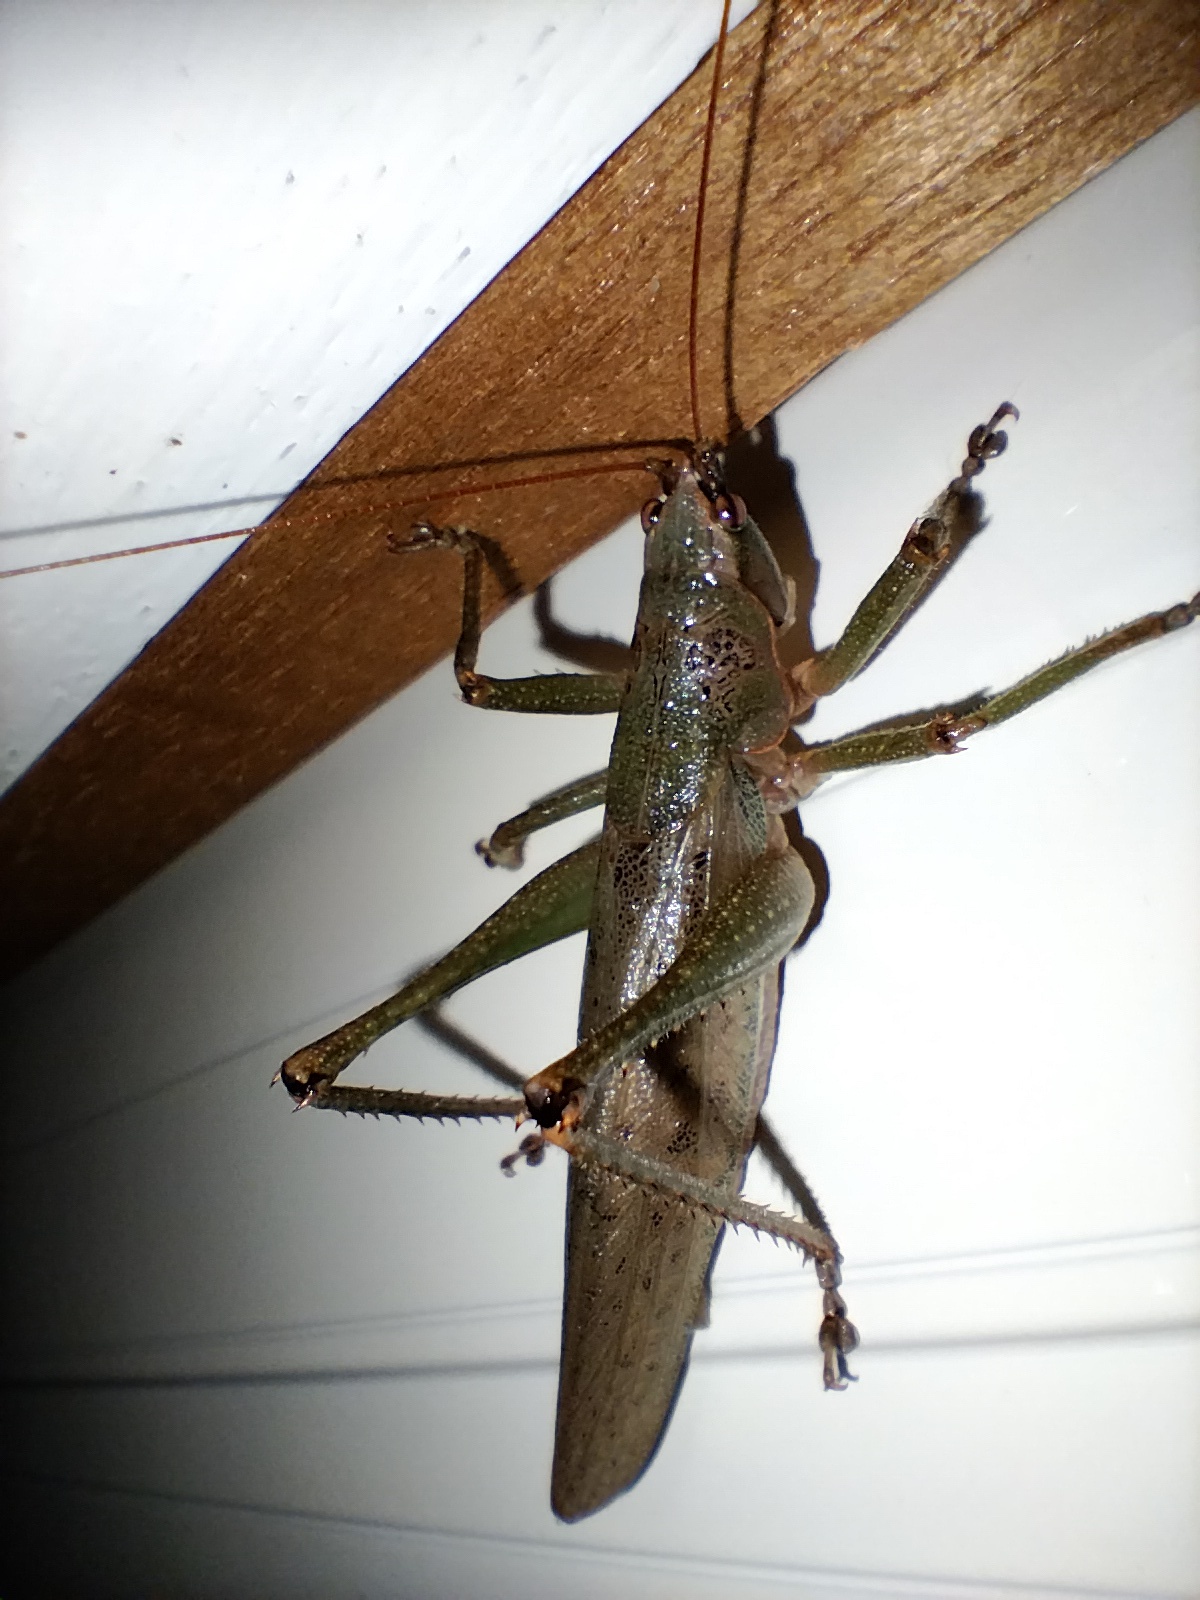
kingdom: Animalia
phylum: Arthropoda
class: Insecta
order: Orthoptera
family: Tettigoniidae
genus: Austrosalomona
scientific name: Austrosalomona falcata
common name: Olive-green coastal katydid
